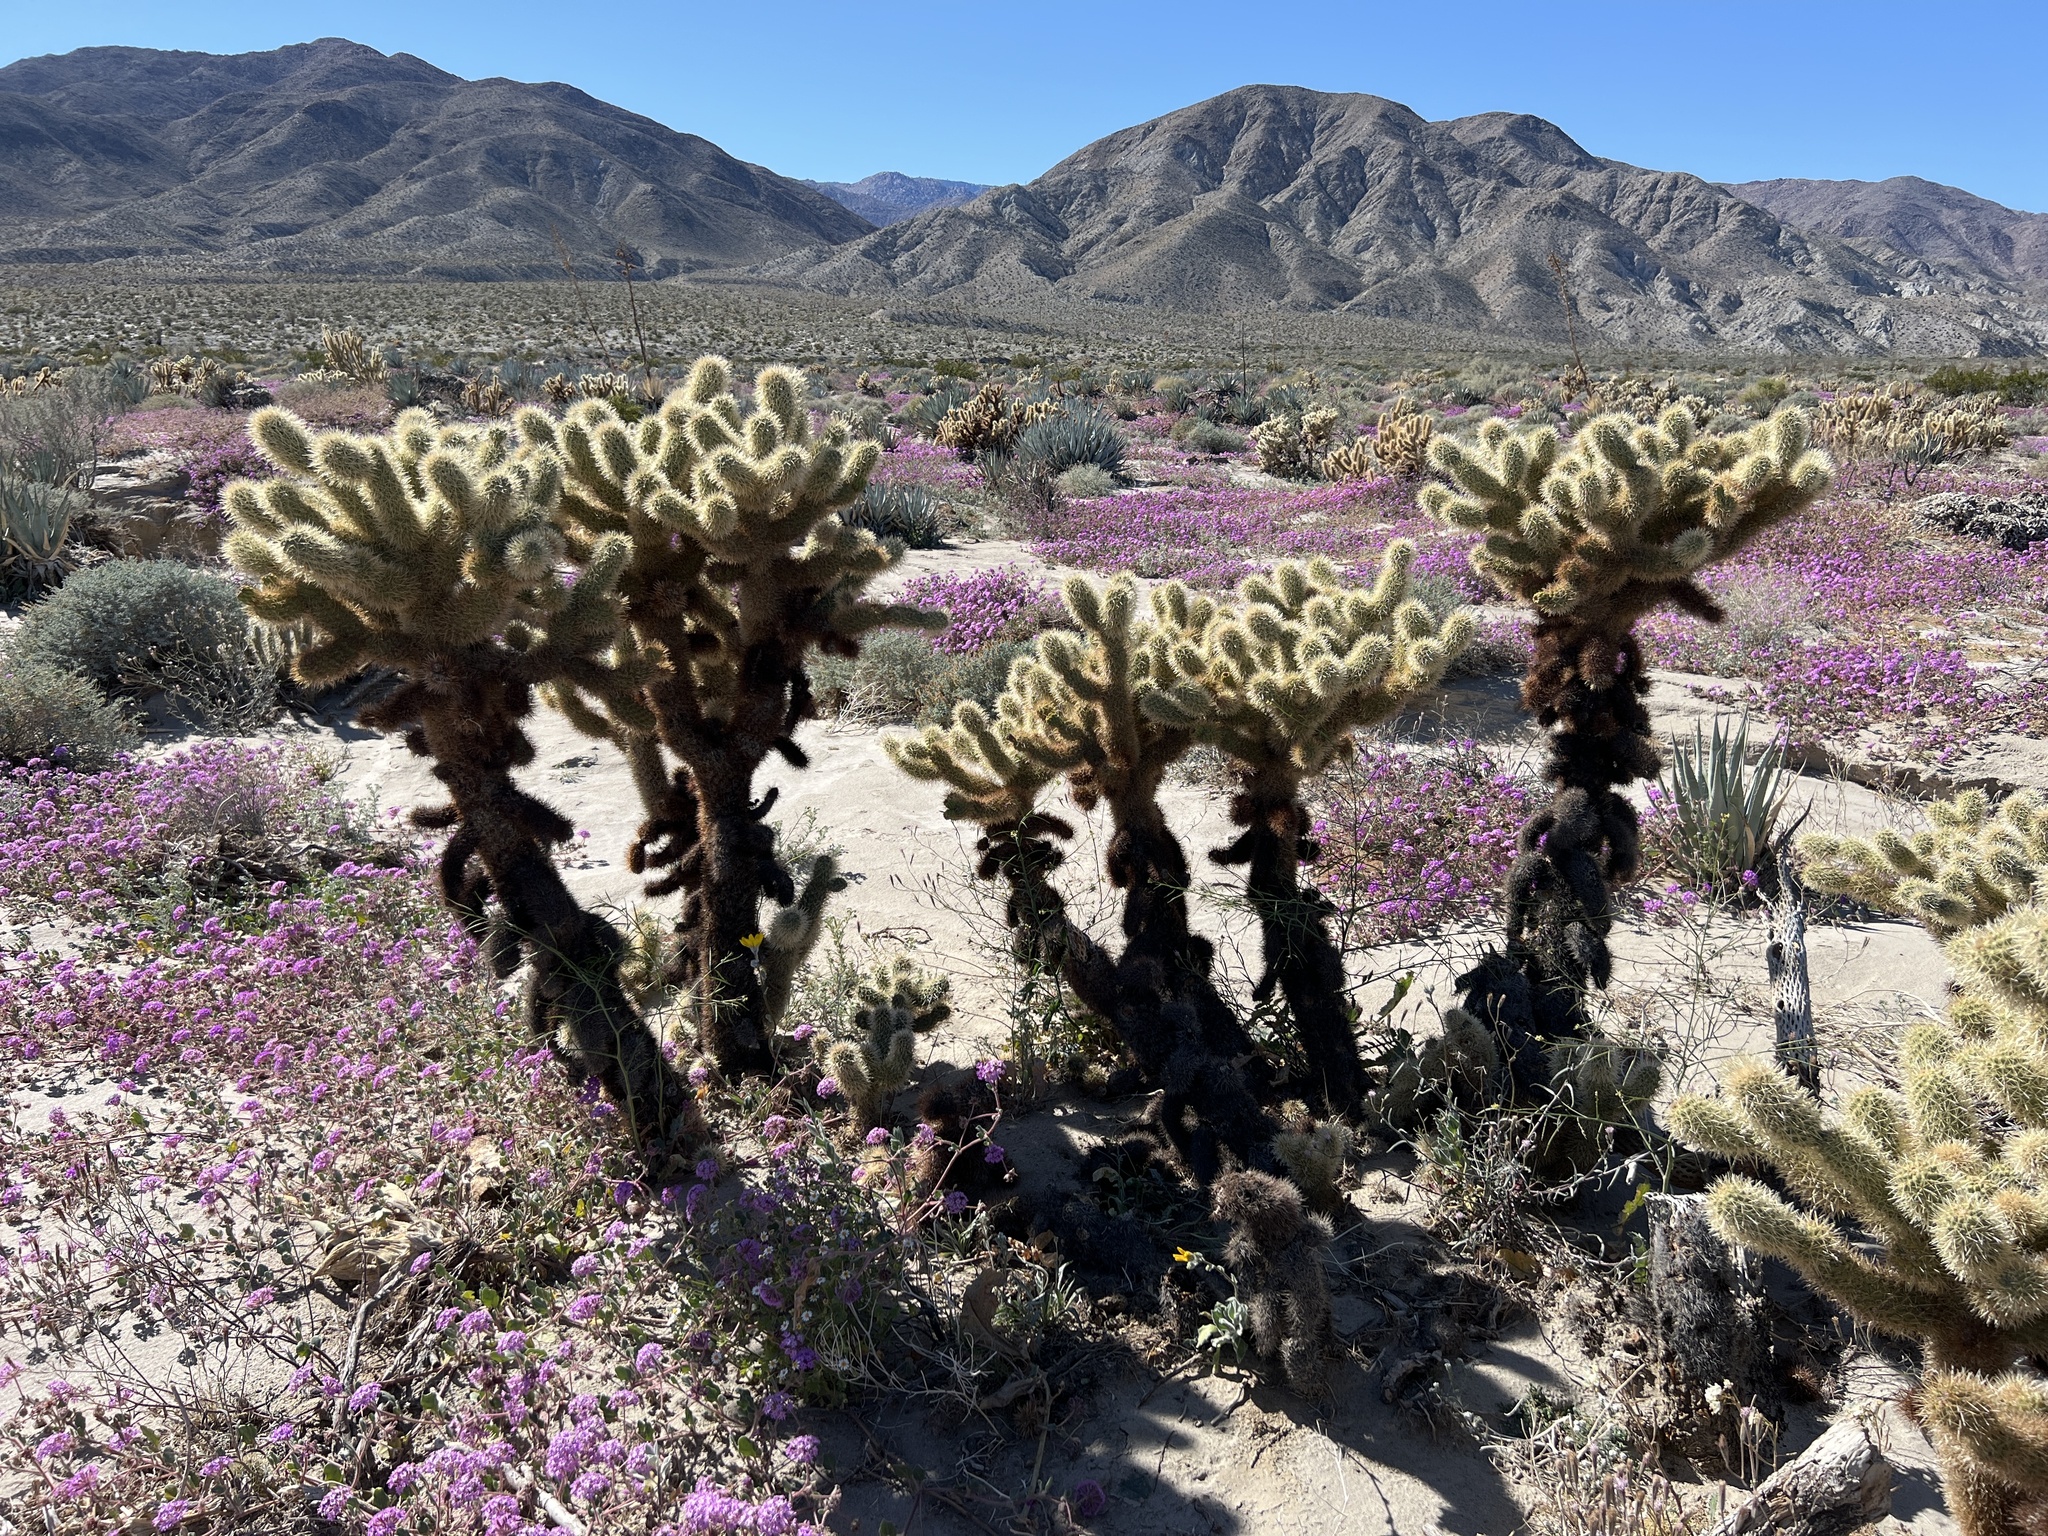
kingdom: Plantae
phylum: Tracheophyta
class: Magnoliopsida
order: Caryophyllales
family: Cactaceae
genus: Cylindropuntia
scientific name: Cylindropuntia fosbergii
